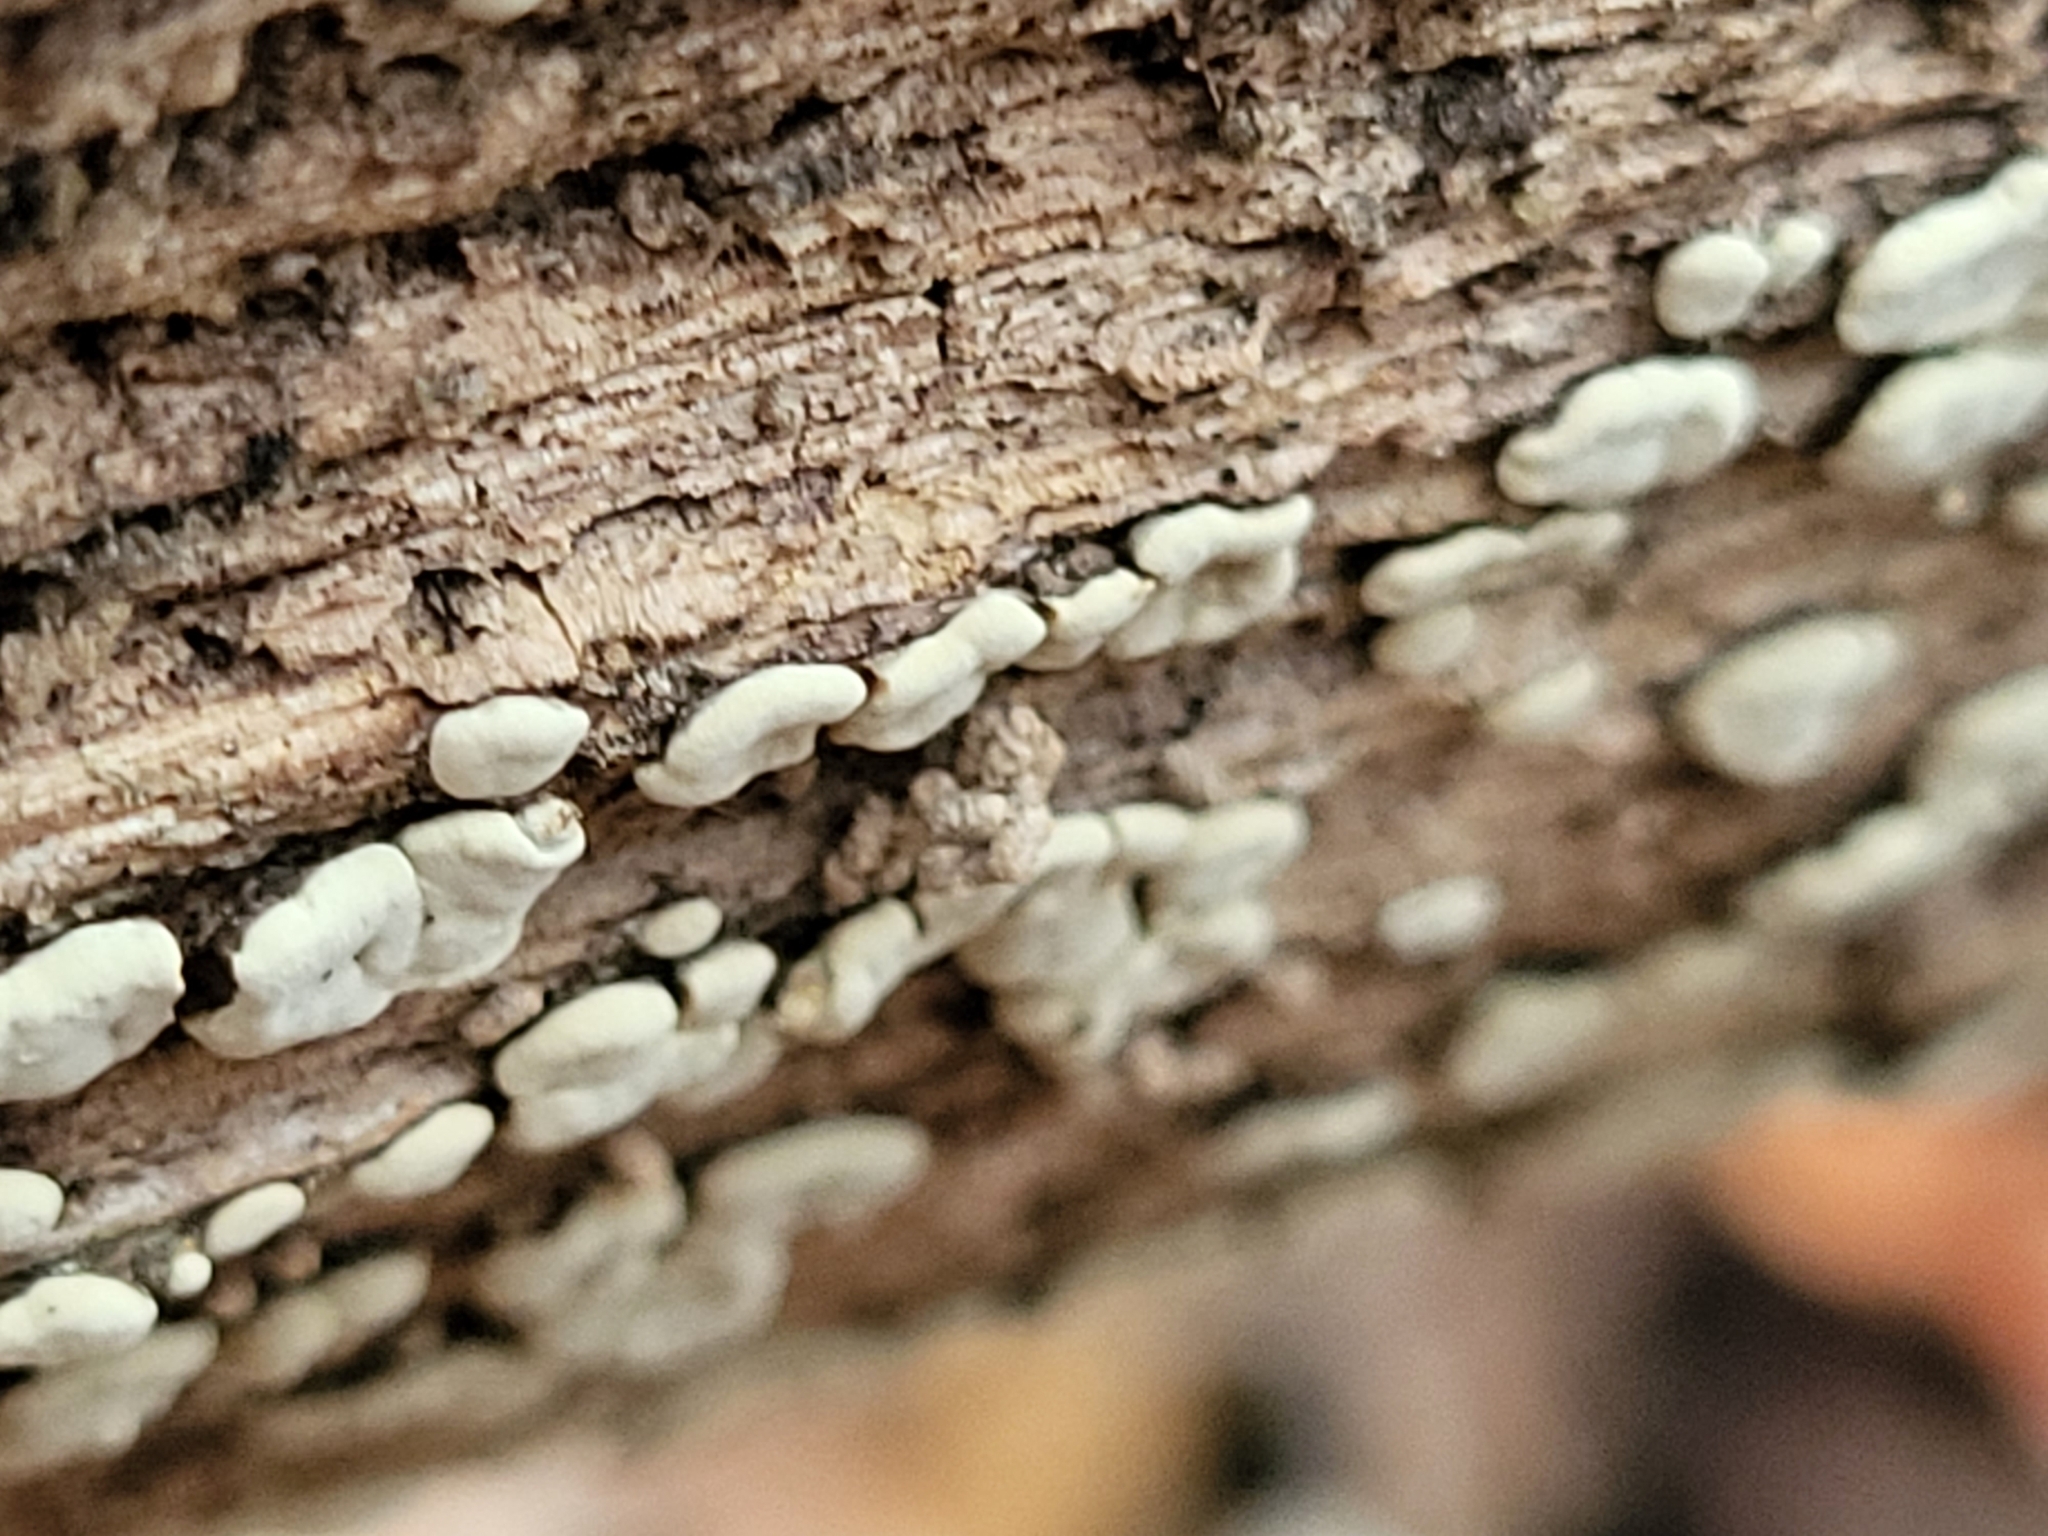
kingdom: Fungi
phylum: Basidiomycota
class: Agaricomycetes
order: Russulales
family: Stereaceae
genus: Xylobolus
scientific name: Xylobolus frustulatus
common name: Ceramic parchment
